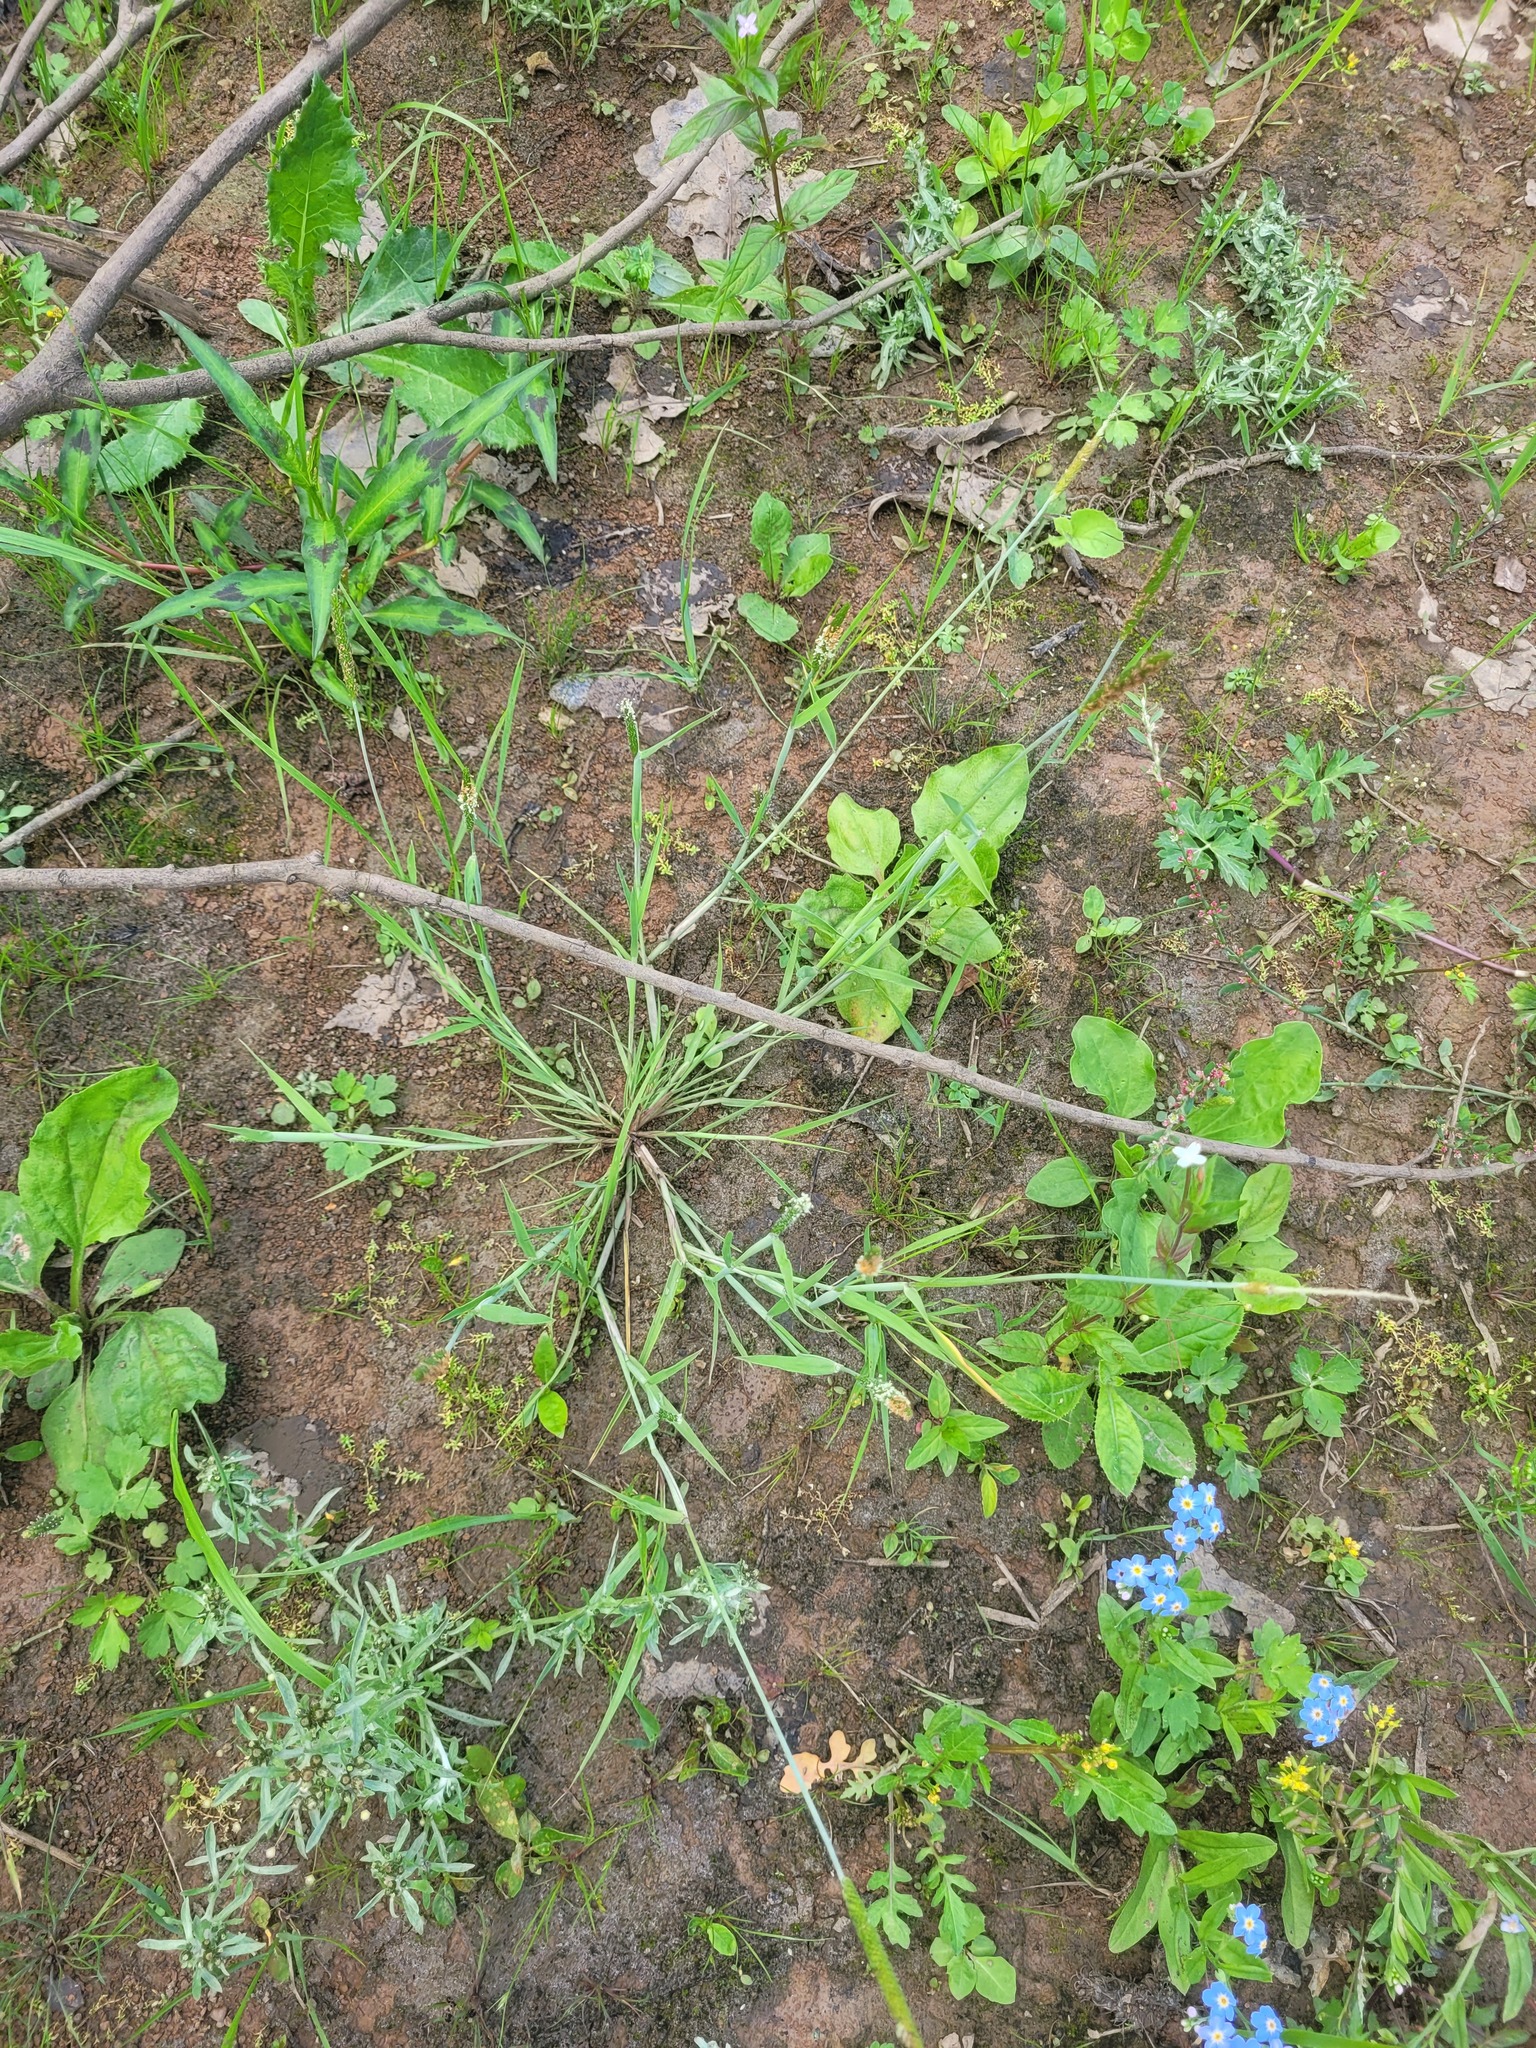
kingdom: Plantae
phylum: Tracheophyta
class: Liliopsida
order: Poales
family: Poaceae
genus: Alopecurus
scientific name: Alopecurus aequalis
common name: Orange foxtail
